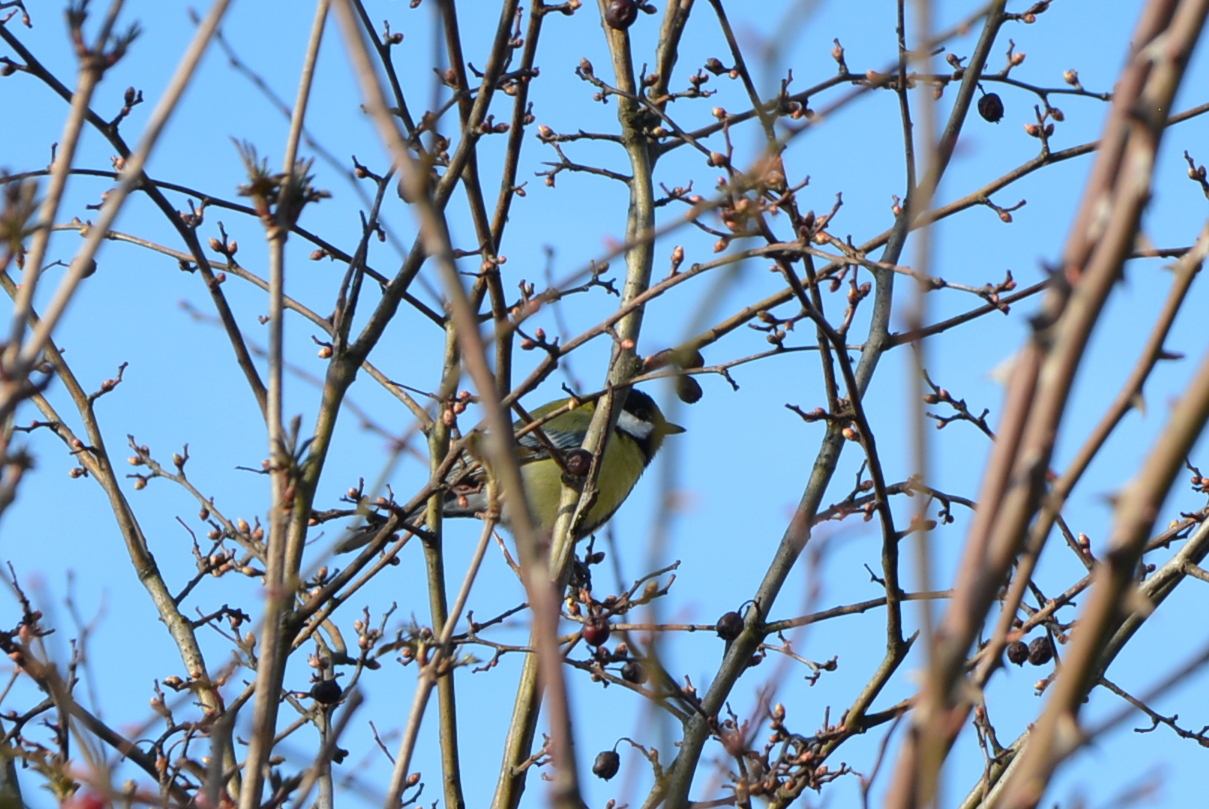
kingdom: Animalia
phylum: Chordata
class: Aves
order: Passeriformes
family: Paridae
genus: Parus
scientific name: Parus major
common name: Great tit
